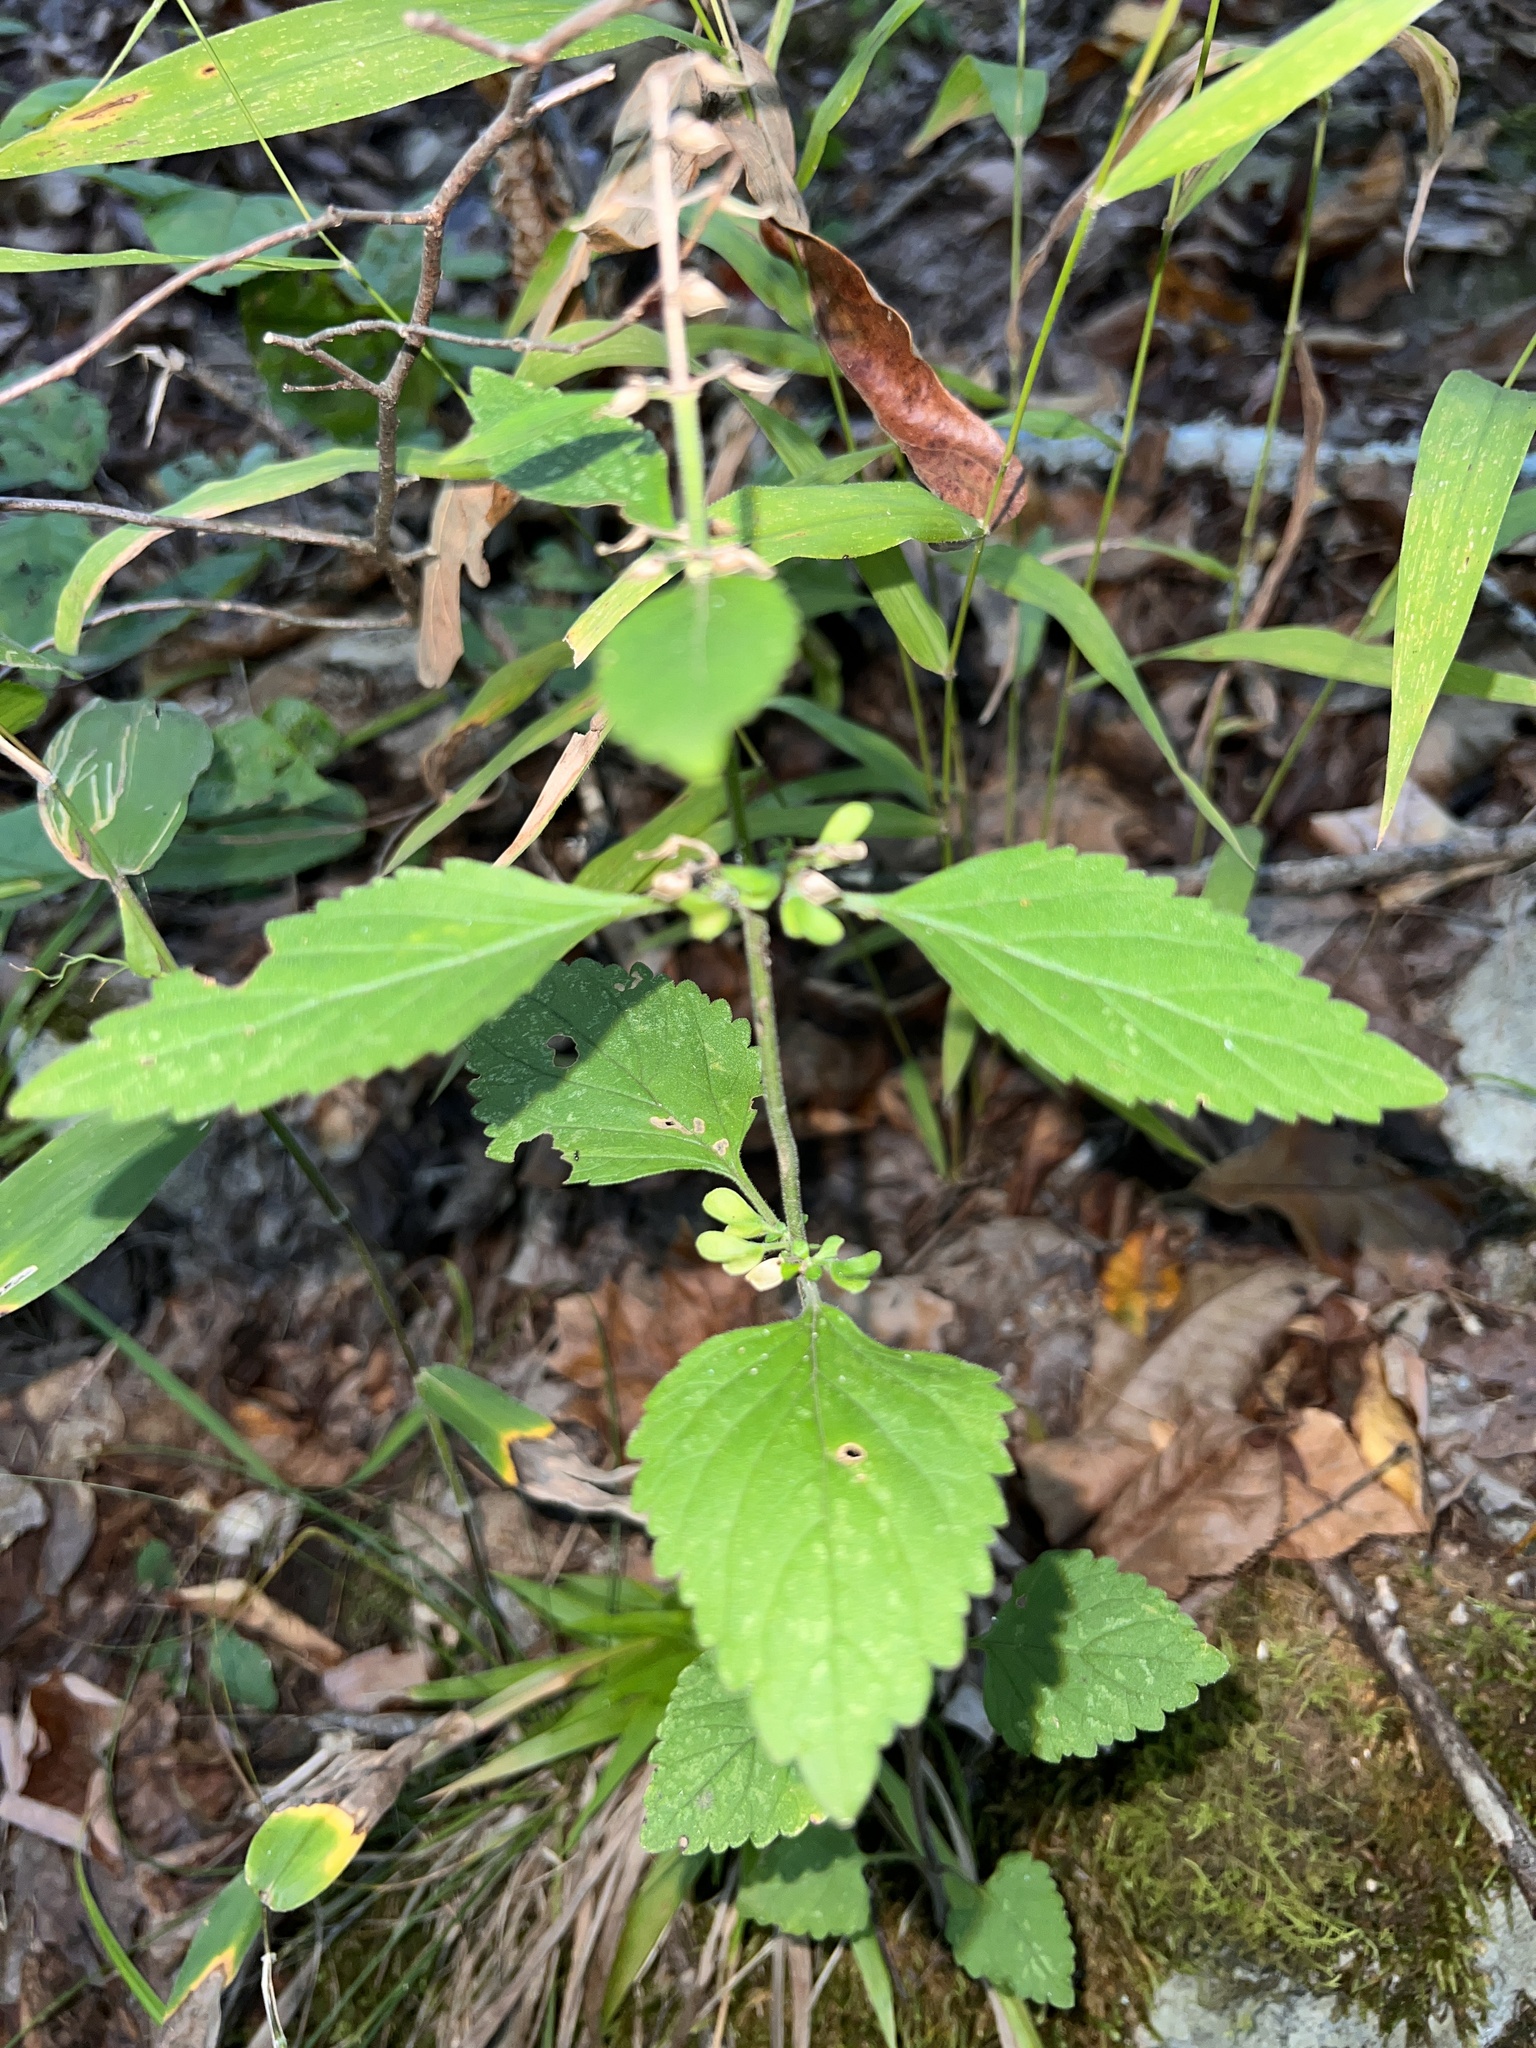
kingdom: Plantae
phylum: Tracheophyta
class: Magnoliopsida
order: Lamiales
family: Lamiaceae
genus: Scutellaria
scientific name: Scutellaria elliptica
